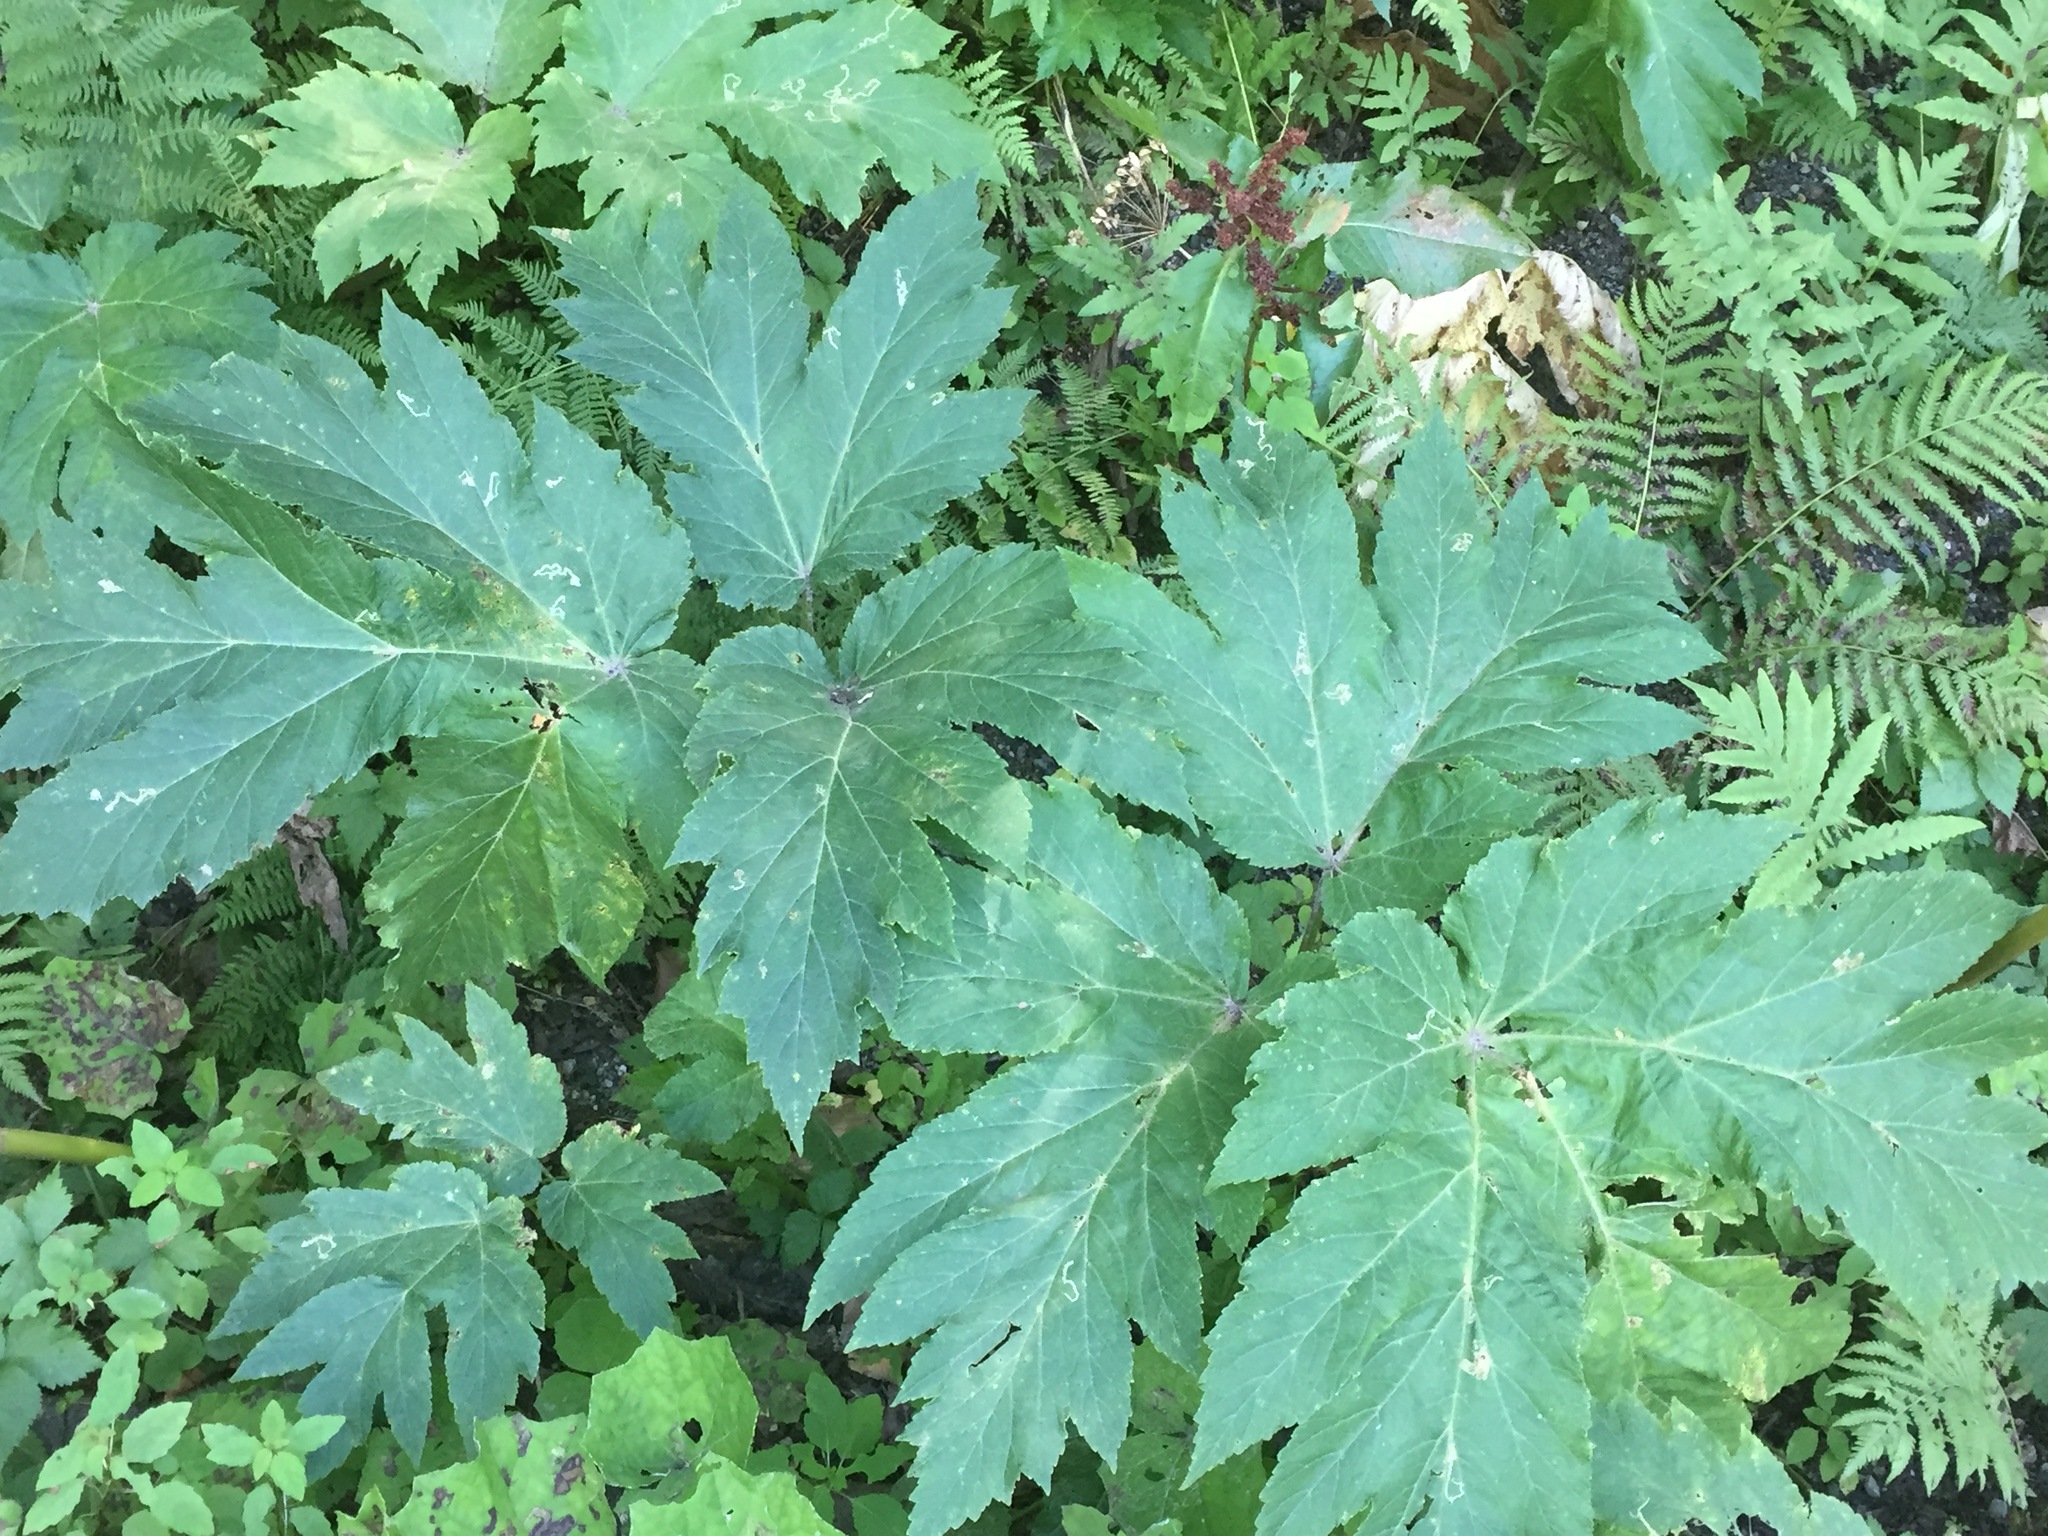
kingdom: Plantae
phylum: Tracheophyta
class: Magnoliopsida
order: Apiales
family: Apiaceae
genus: Heracleum
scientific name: Heracleum maximum
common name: American cow parsnip
